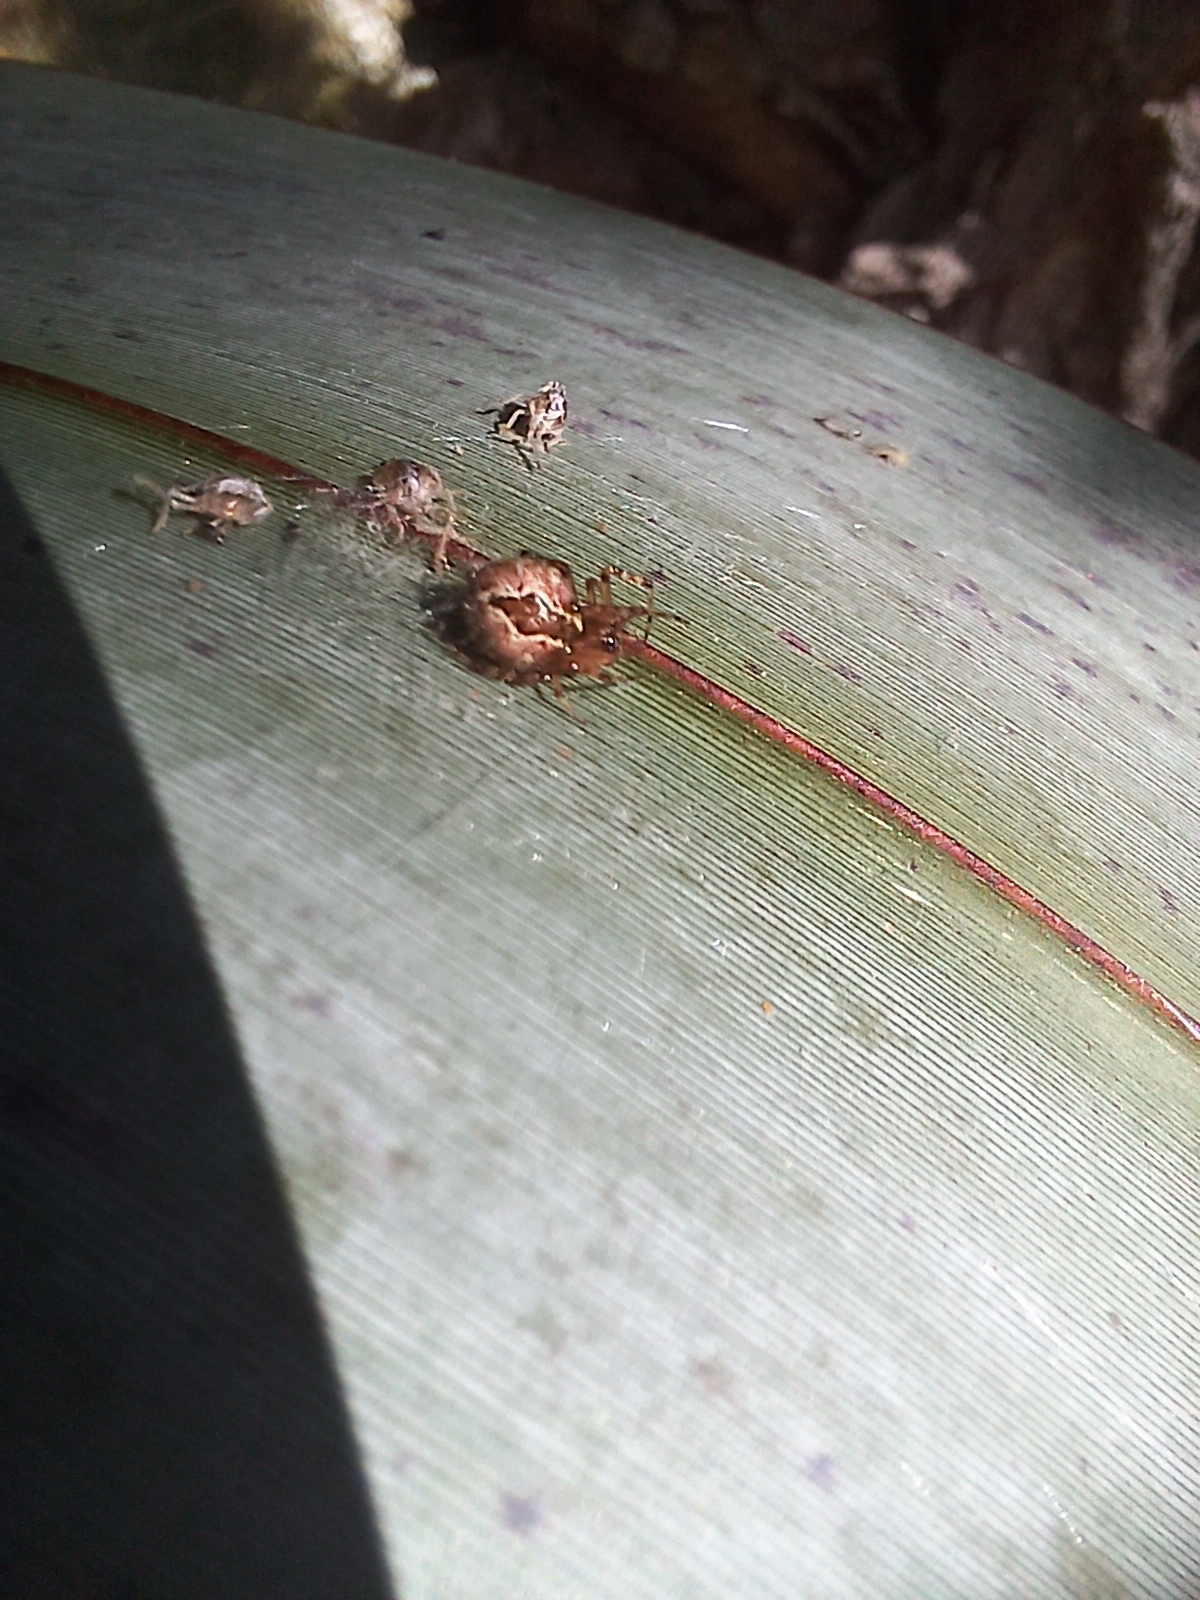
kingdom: Animalia
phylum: Arthropoda
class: Arachnida
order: Araneae
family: Theridiidae
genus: Cryptachaea
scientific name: Cryptachaea veruculata
